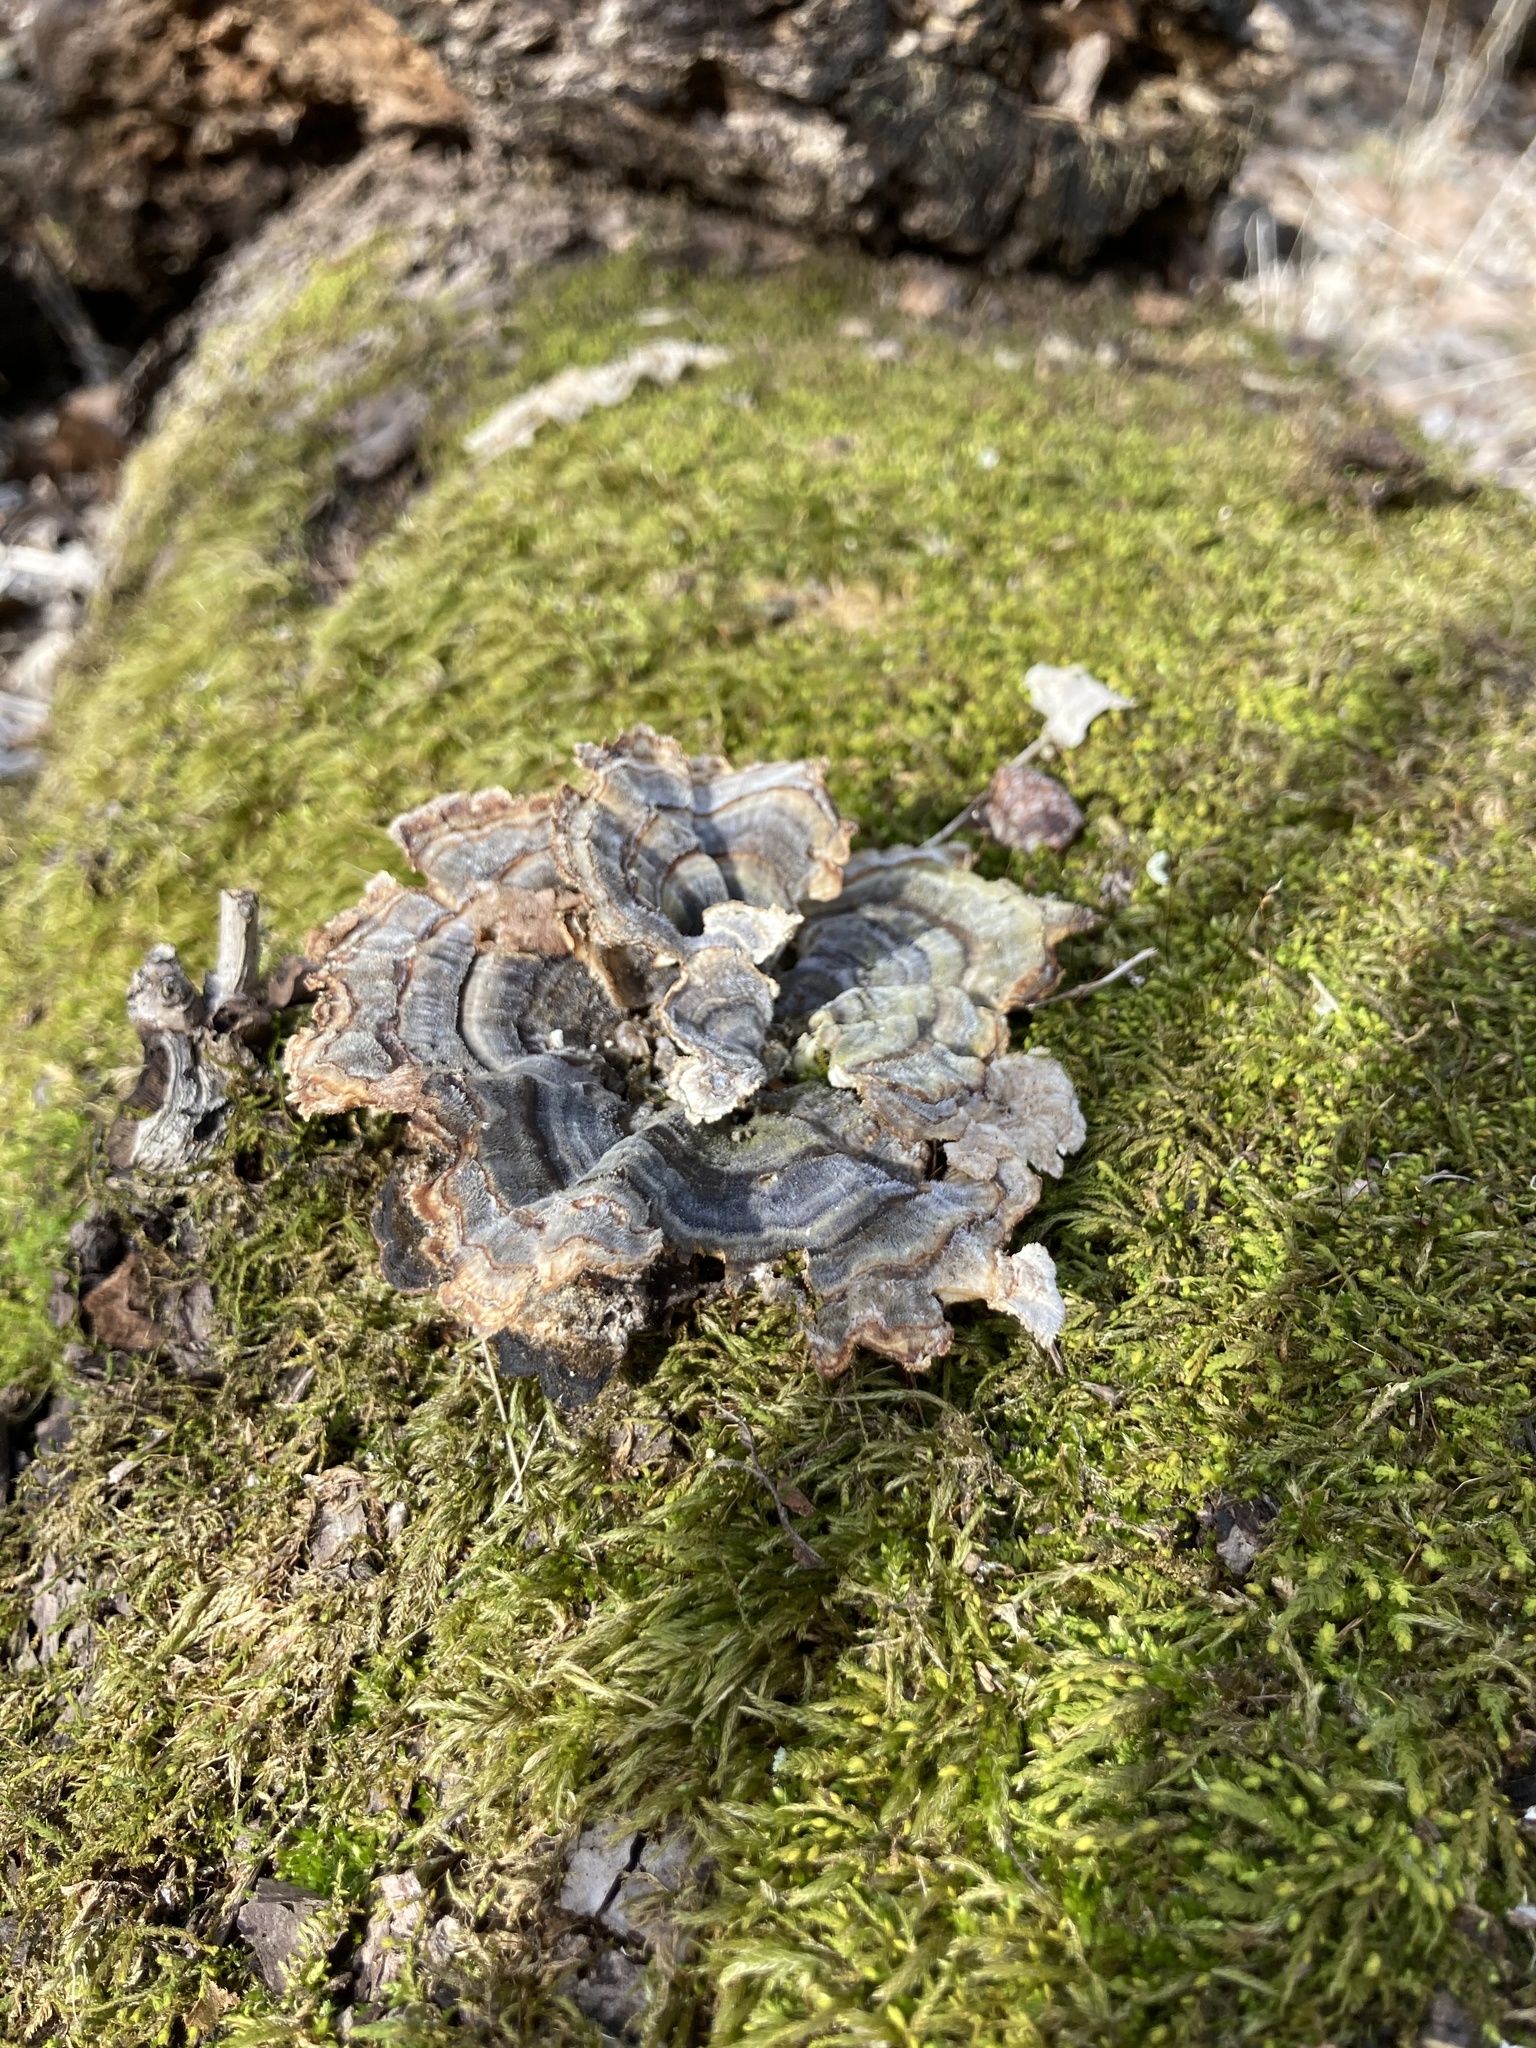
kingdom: Fungi
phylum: Basidiomycota
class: Agaricomycetes
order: Polyporales
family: Polyporaceae
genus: Trametes
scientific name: Trametes versicolor
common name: Turkeytail
